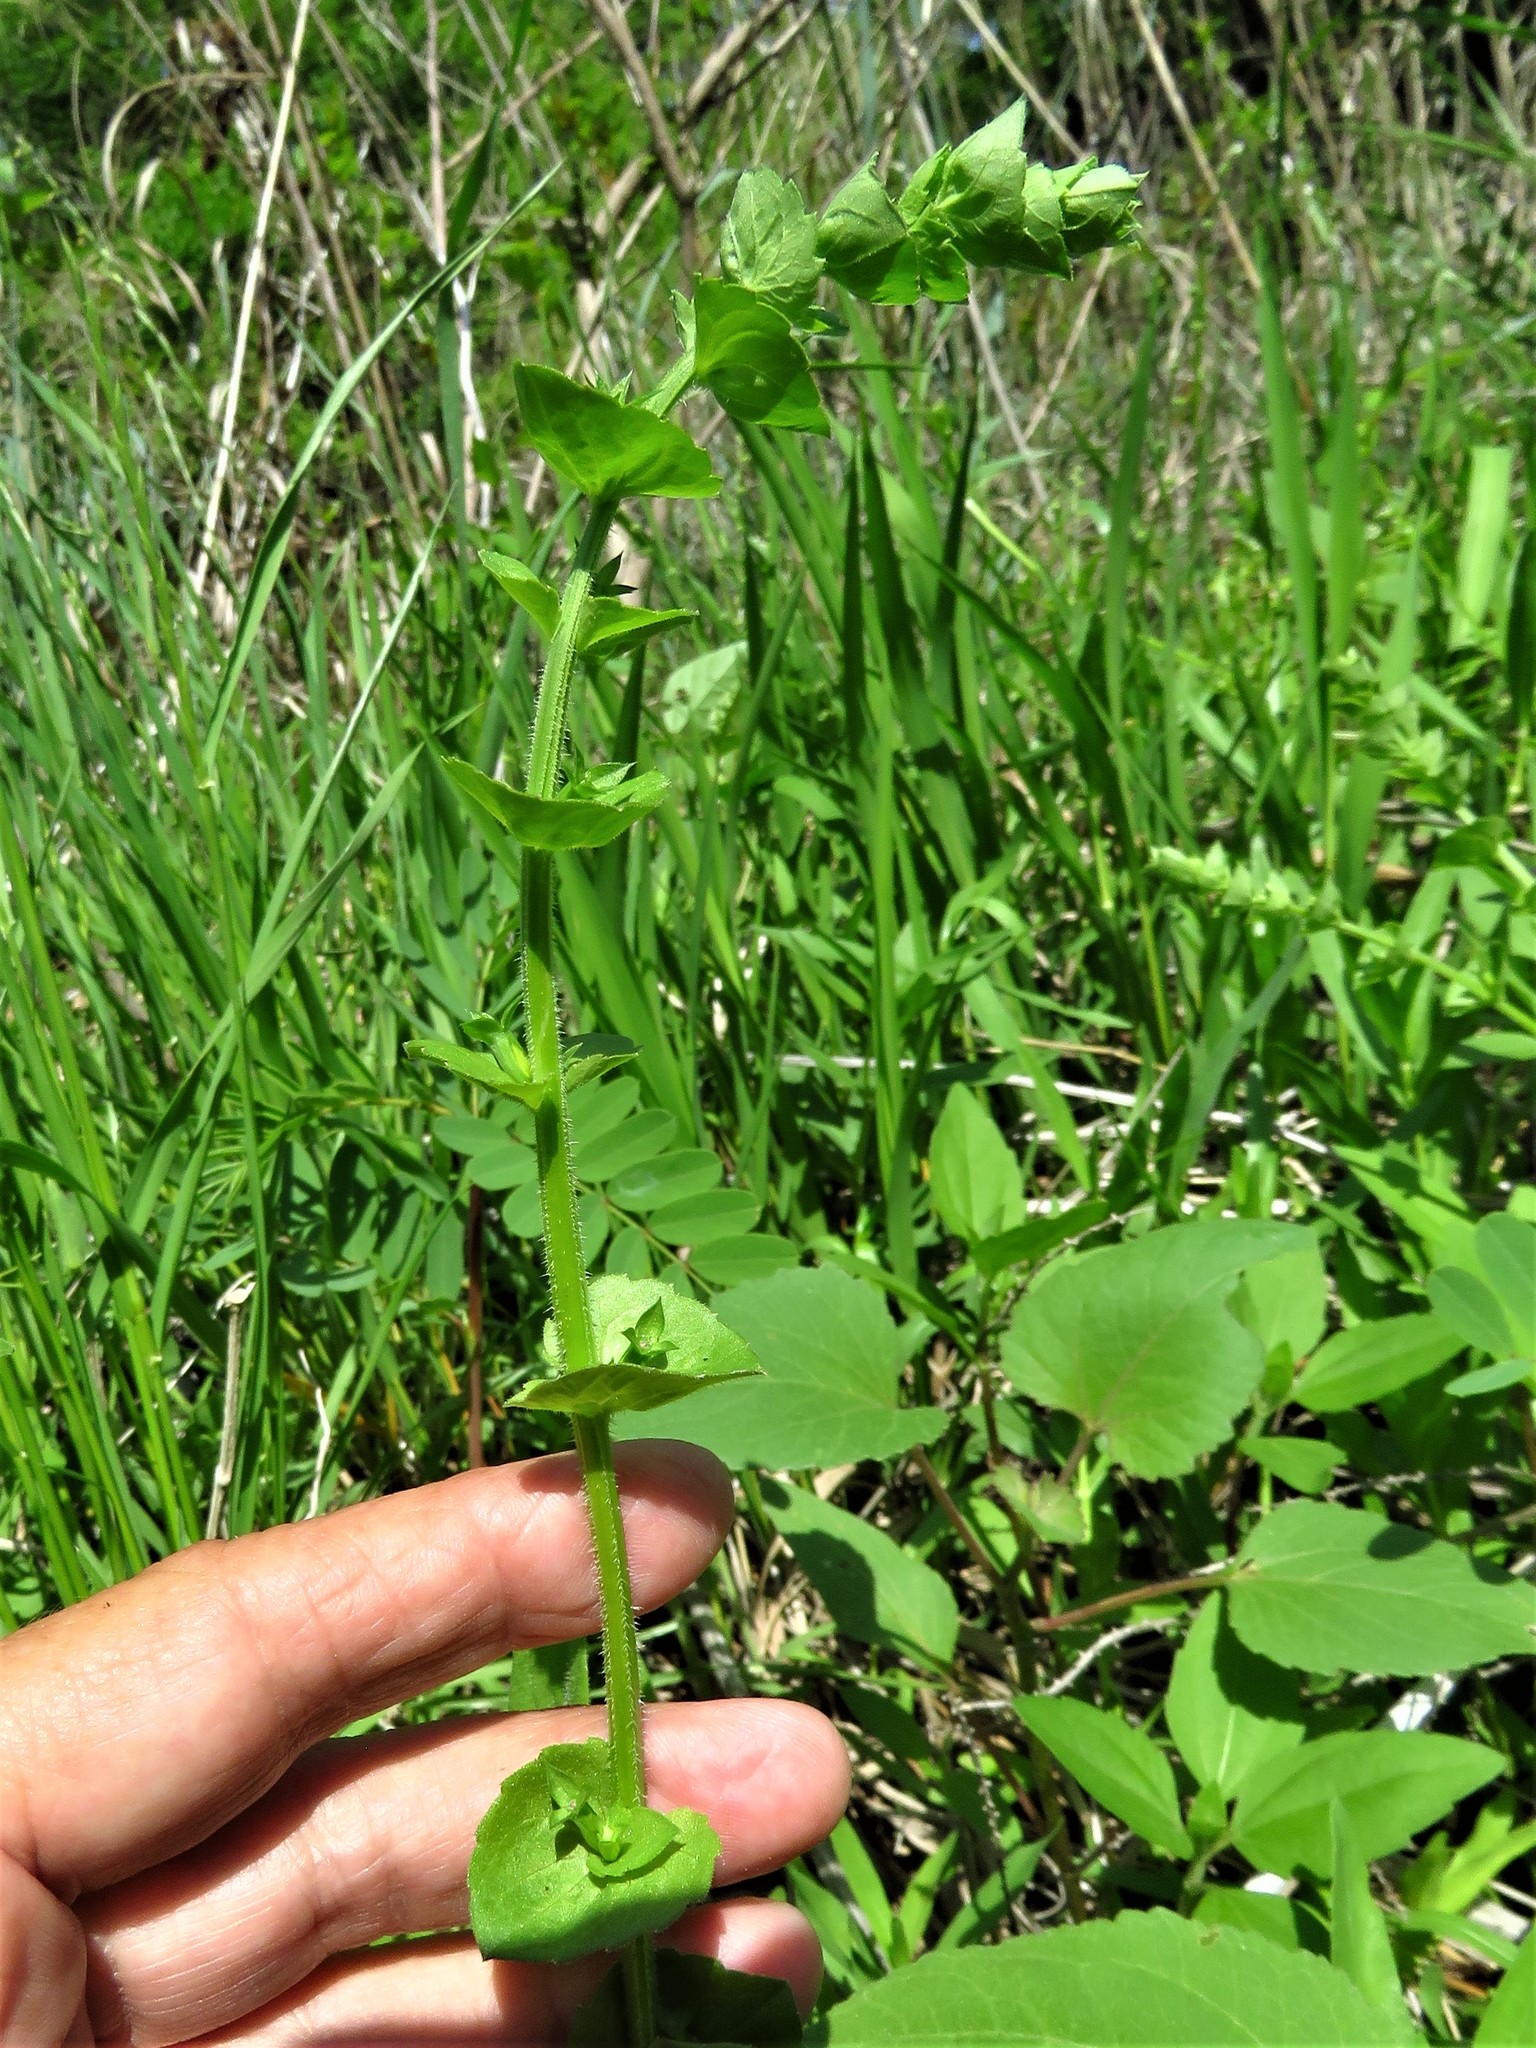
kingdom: Plantae
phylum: Tracheophyta
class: Magnoliopsida
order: Asterales
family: Campanulaceae
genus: Triodanis
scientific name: Triodanis perfoliata
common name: Clasping venus' looking-glass
